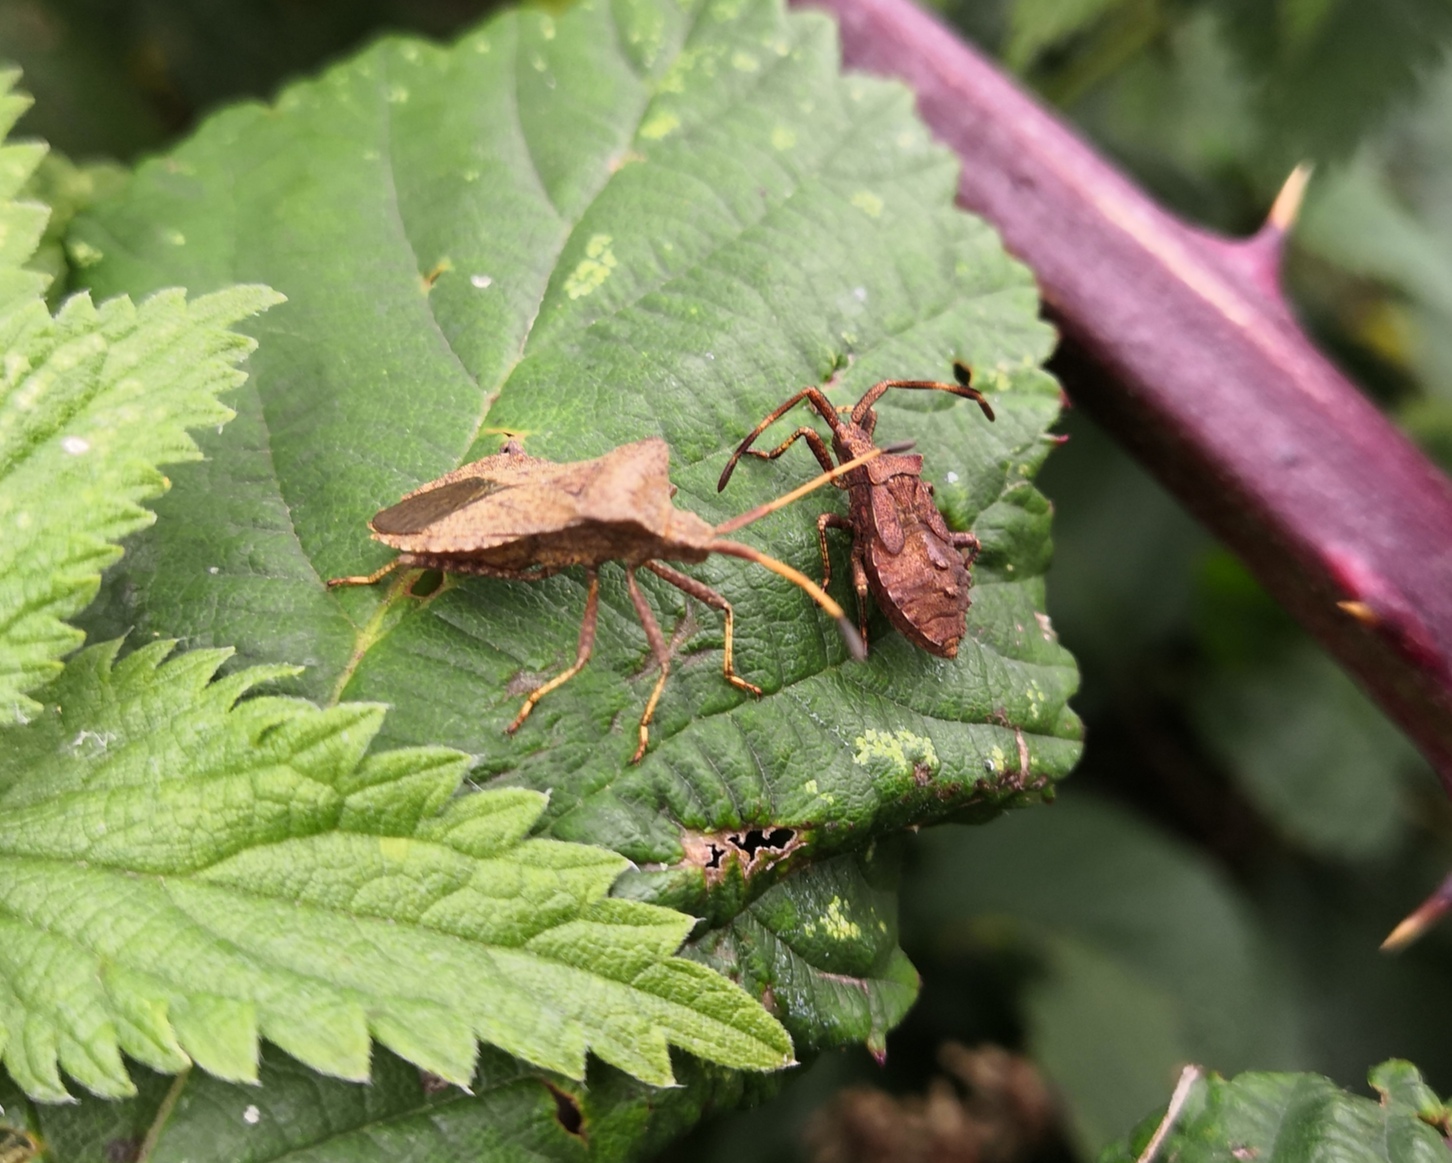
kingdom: Animalia
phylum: Arthropoda
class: Insecta
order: Hemiptera
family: Coreidae
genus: Coreus
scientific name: Coreus marginatus
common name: Dock bug
